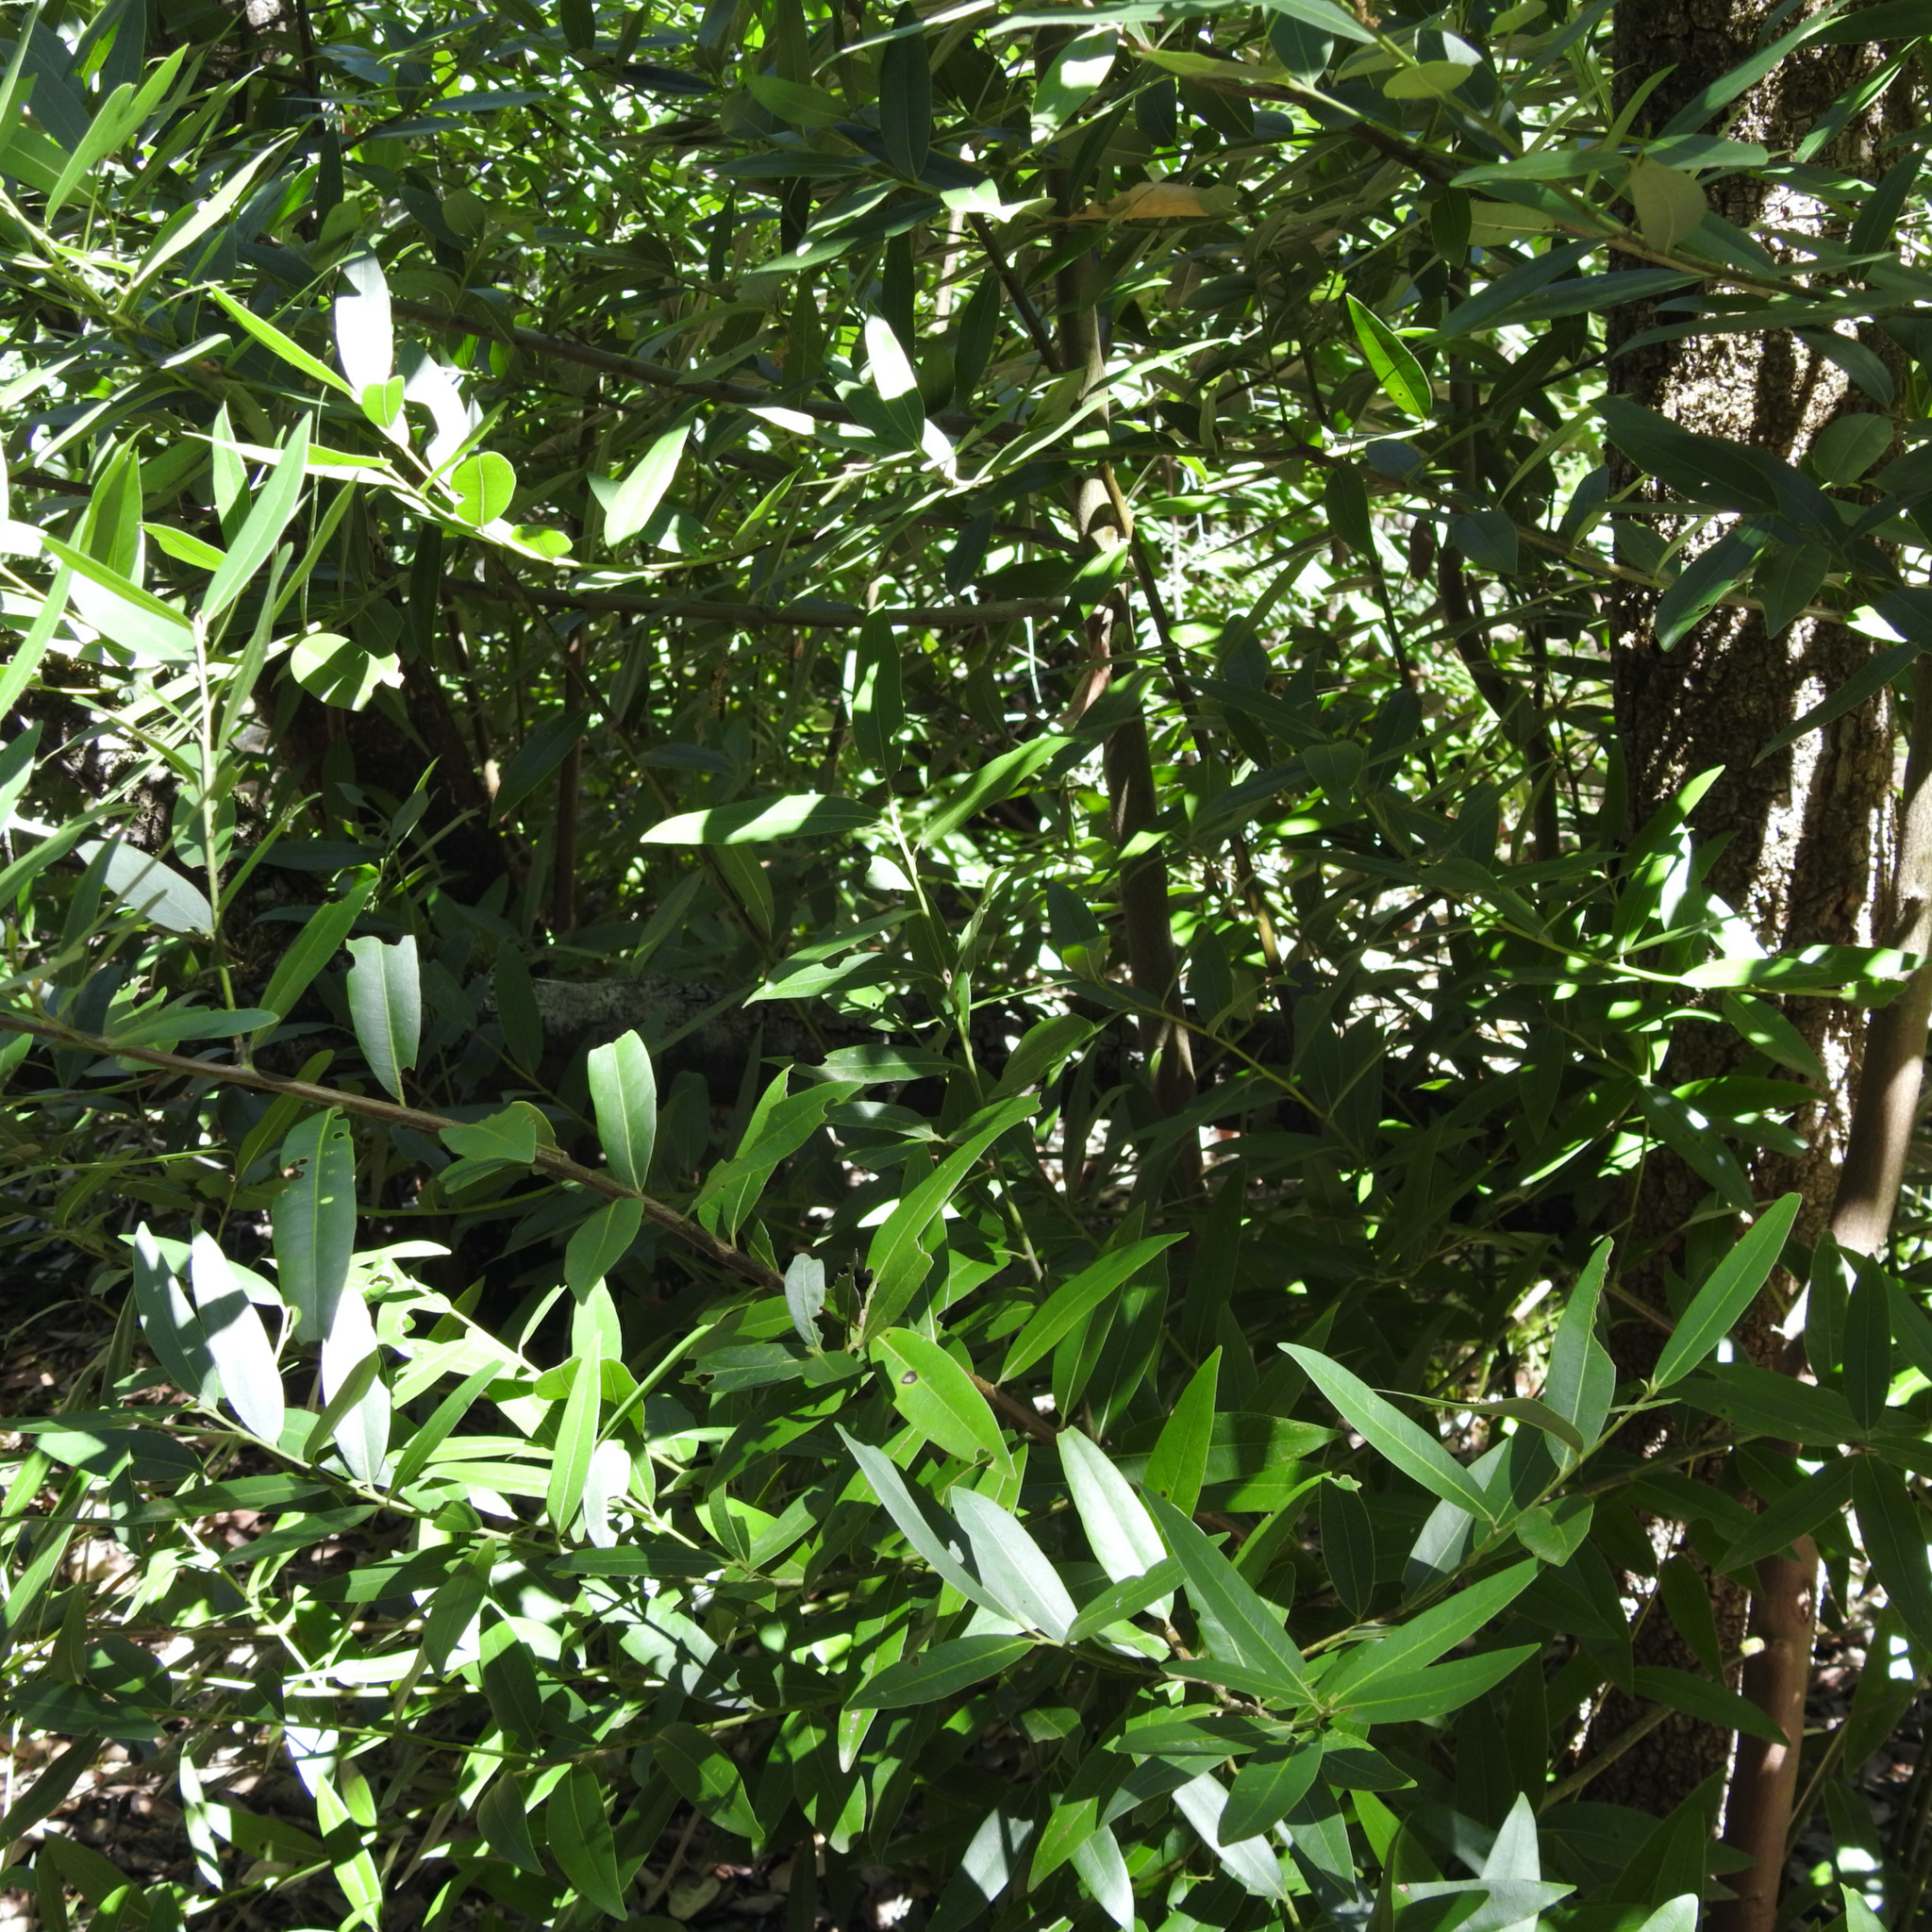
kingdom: Plantae
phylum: Tracheophyta
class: Magnoliopsida
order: Laurales
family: Lauraceae
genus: Umbellularia
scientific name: Umbellularia californica
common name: California bay
